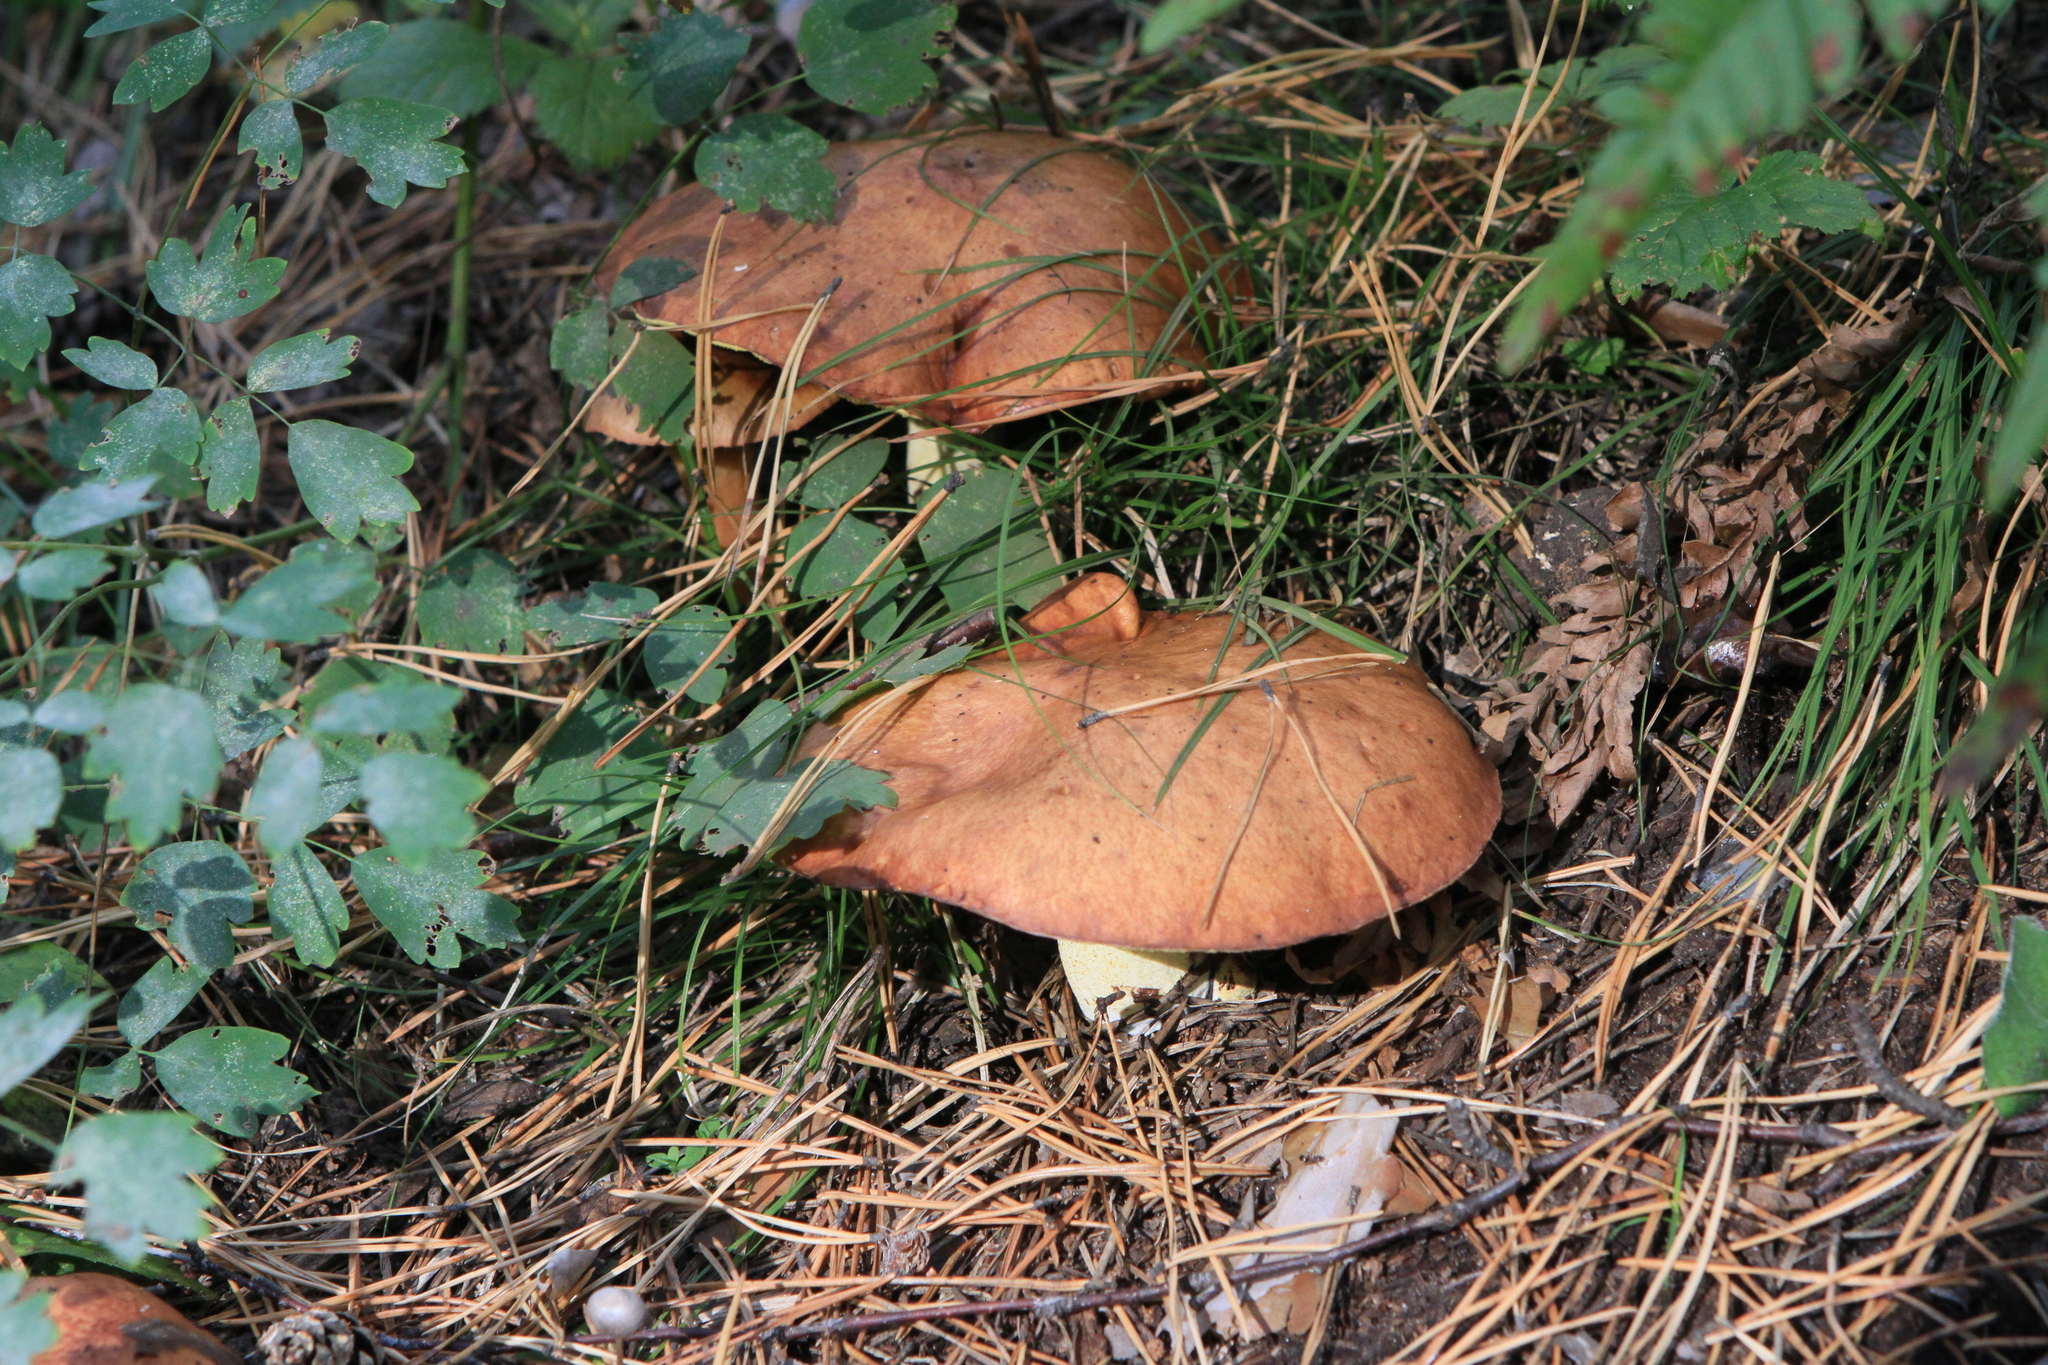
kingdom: Fungi
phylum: Basidiomycota
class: Agaricomycetes
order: Boletales
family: Suillaceae
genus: Suillus
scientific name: Suillus granulatus
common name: Weeping bolete
